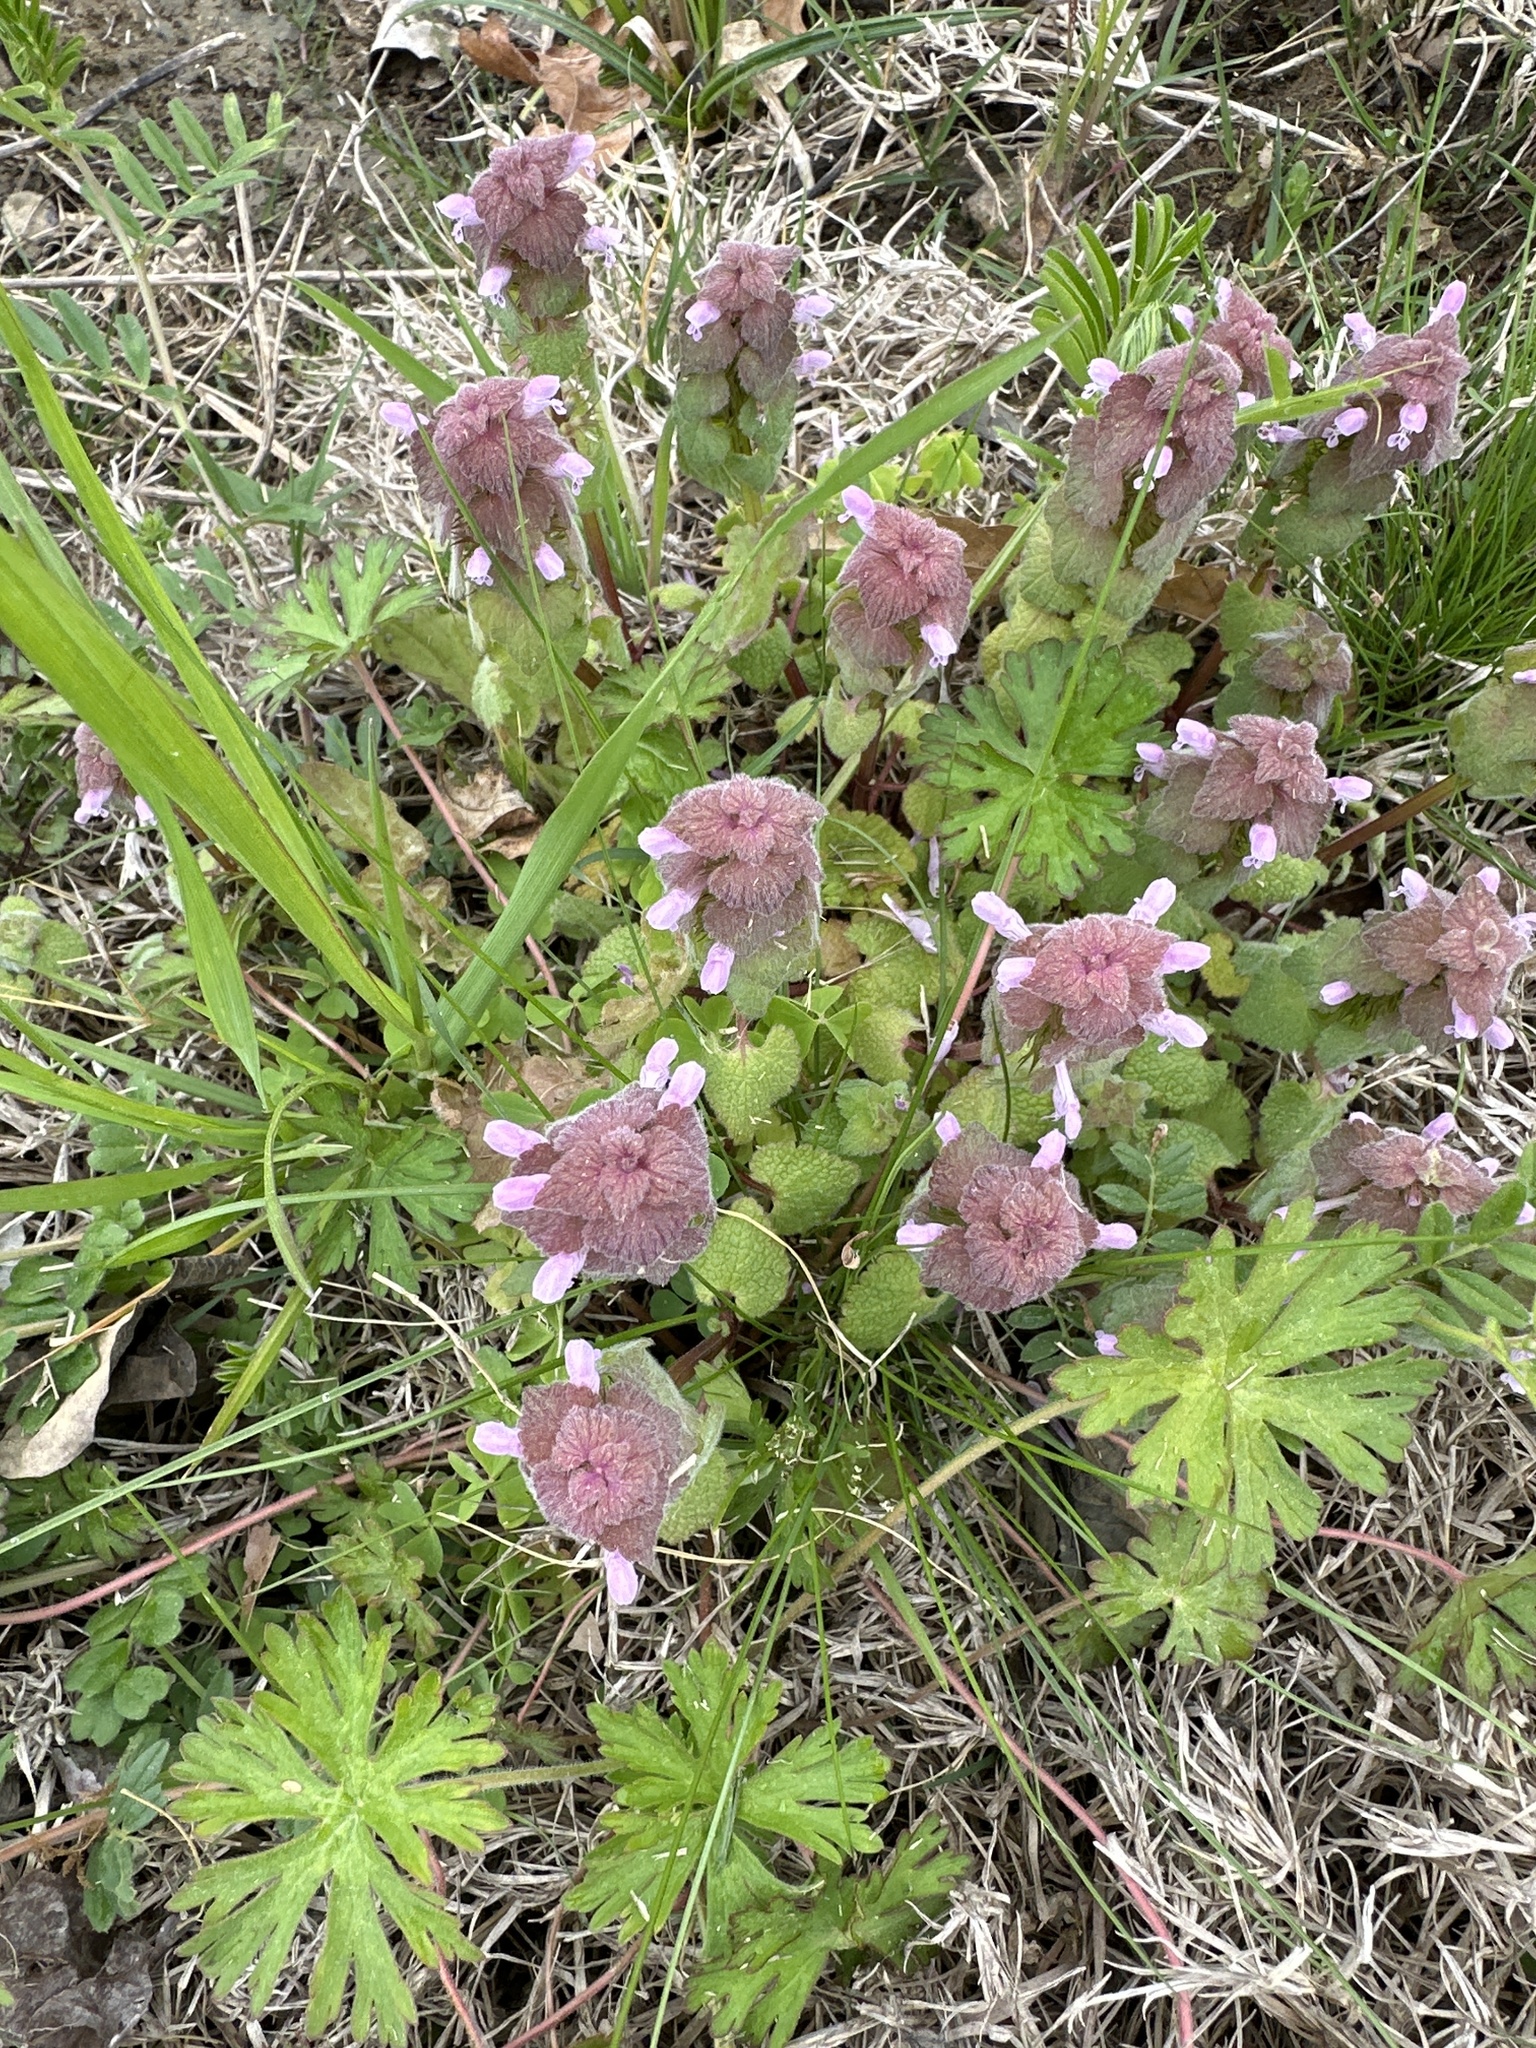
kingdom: Plantae
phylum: Tracheophyta
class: Magnoliopsida
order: Lamiales
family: Lamiaceae
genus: Lamium
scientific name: Lamium purpureum
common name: Red dead-nettle
